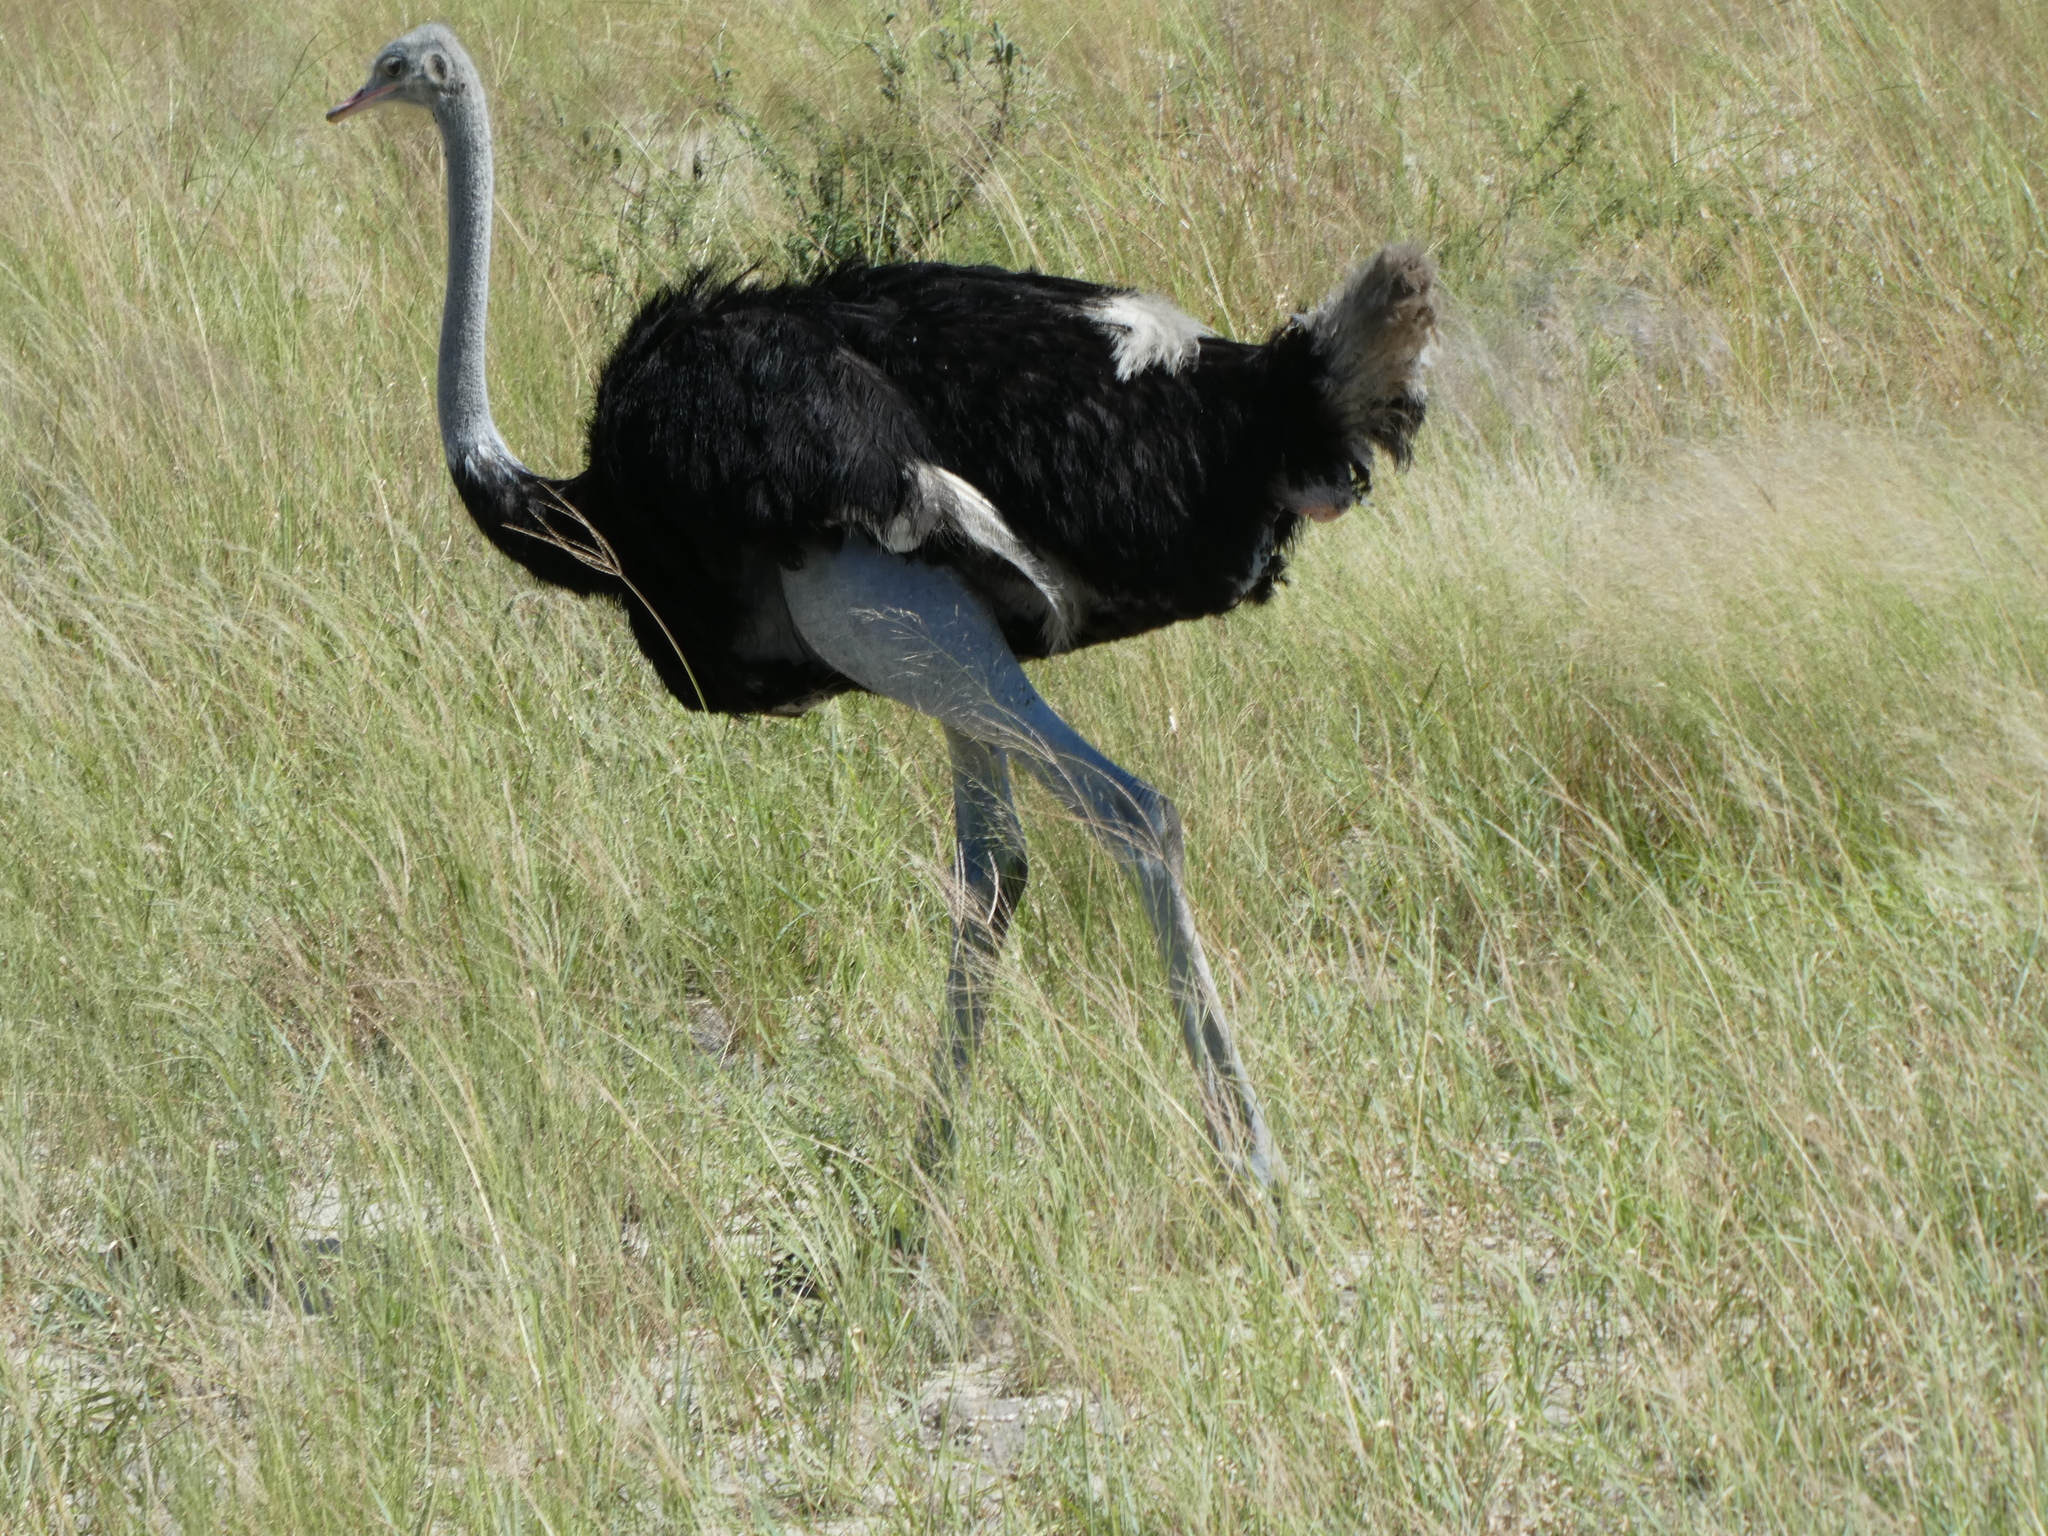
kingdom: Animalia
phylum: Chordata
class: Aves
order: Struthioniformes
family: Struthionidae
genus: Struthio
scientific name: Struthio camelus
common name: Common ostrich
